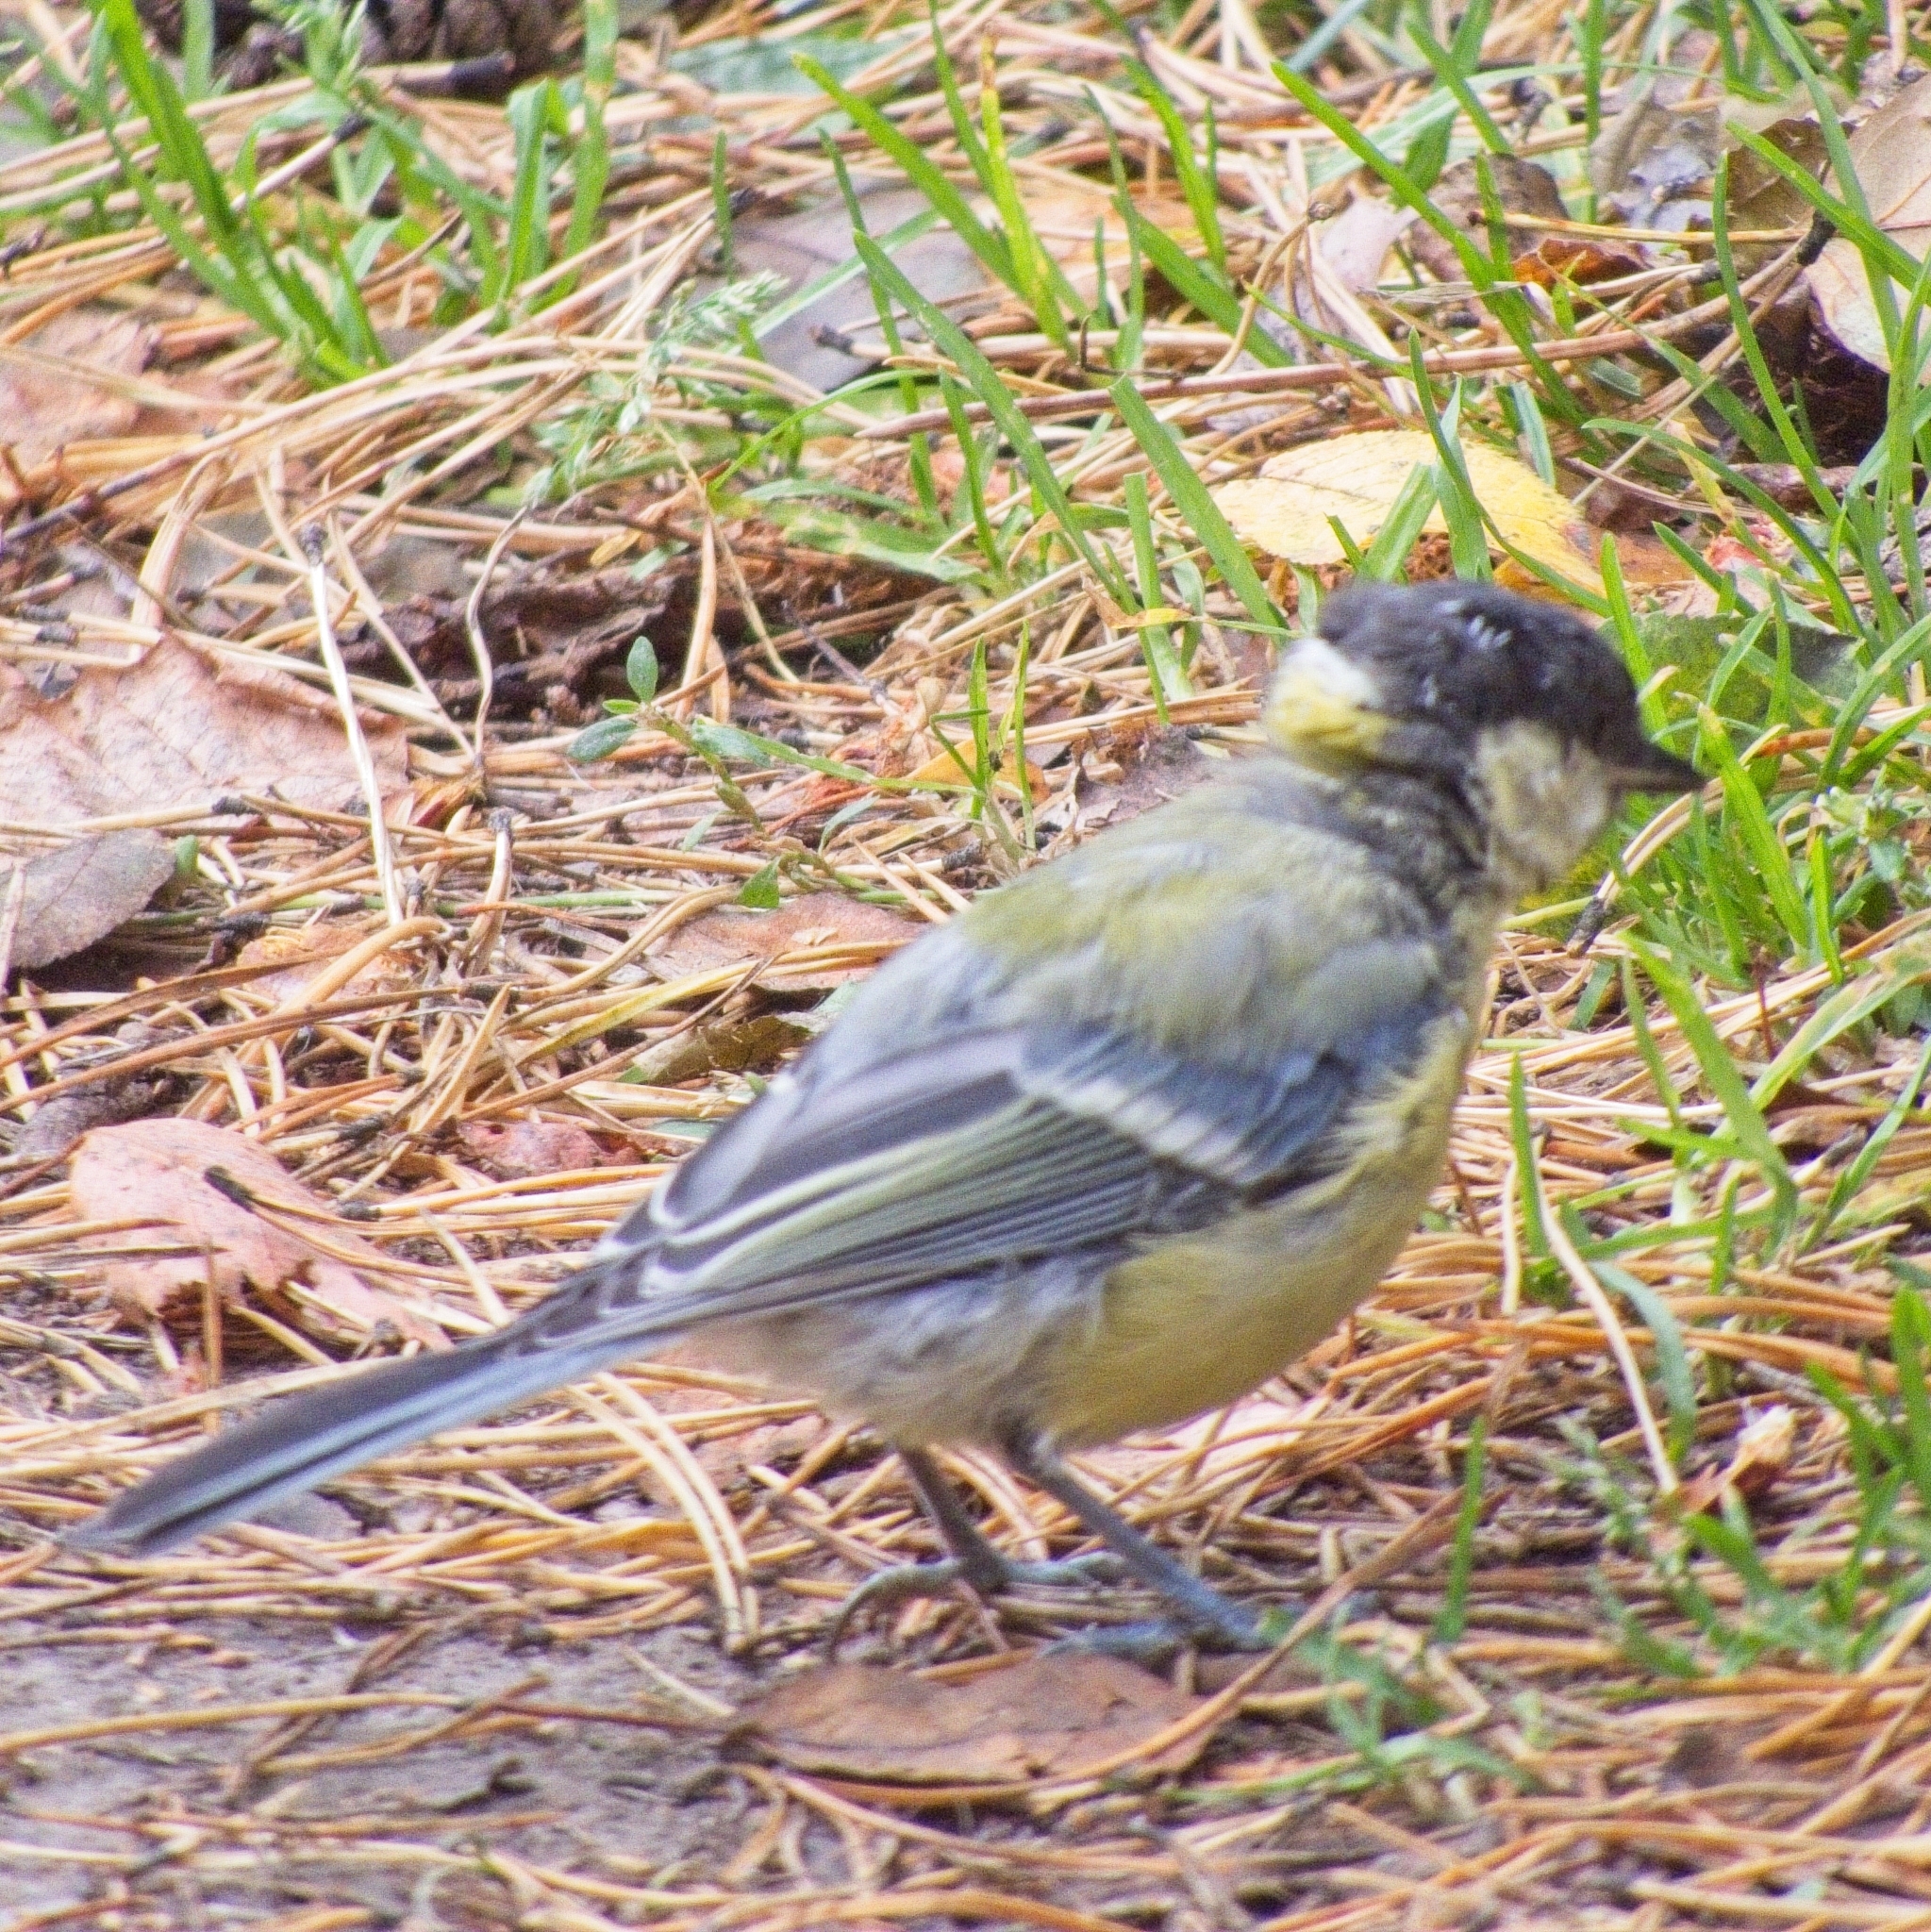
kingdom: Animalia
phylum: Chordata
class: Aves
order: Passeriformes
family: Paridae
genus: Parus
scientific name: Parus major
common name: Great tit
